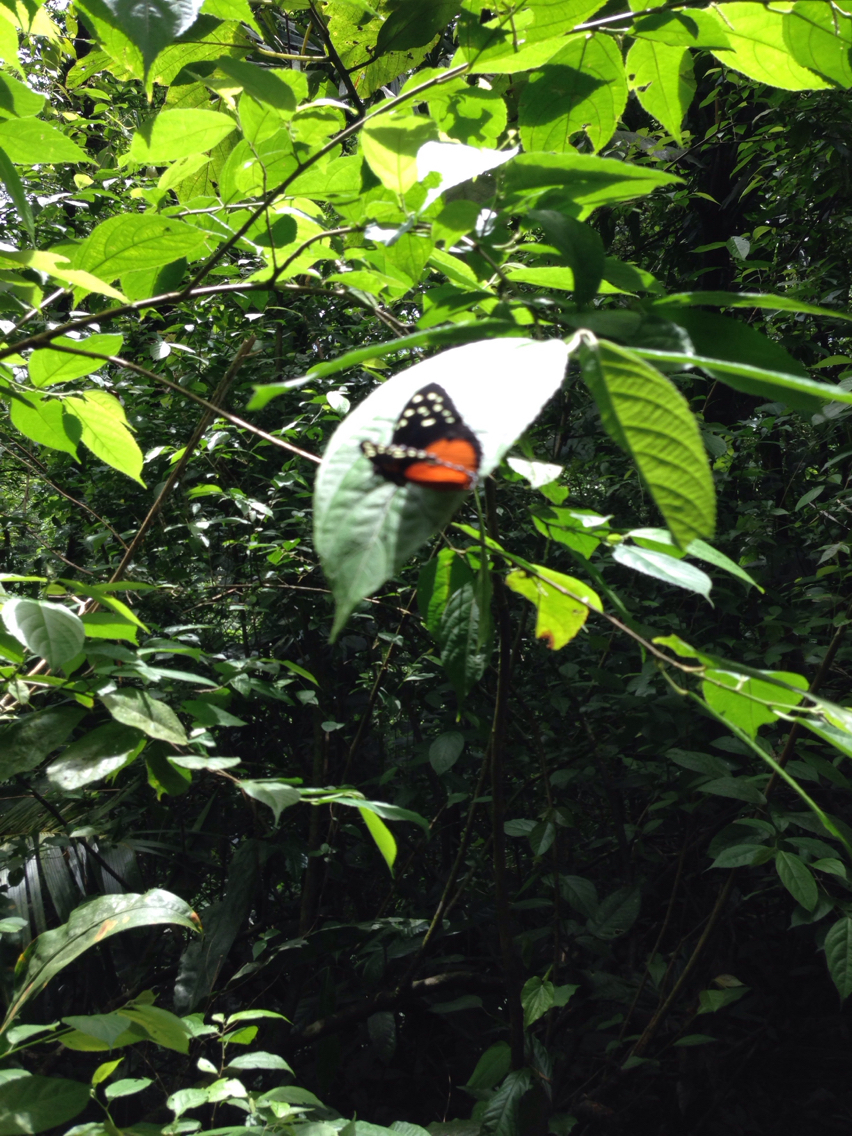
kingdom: Animalia
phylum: Arthropoda
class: Insecta
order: Lepidoptera
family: Nymphalidae
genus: Tithorea
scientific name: Tithorea tarricina
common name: Cream-spotted tigerwing
